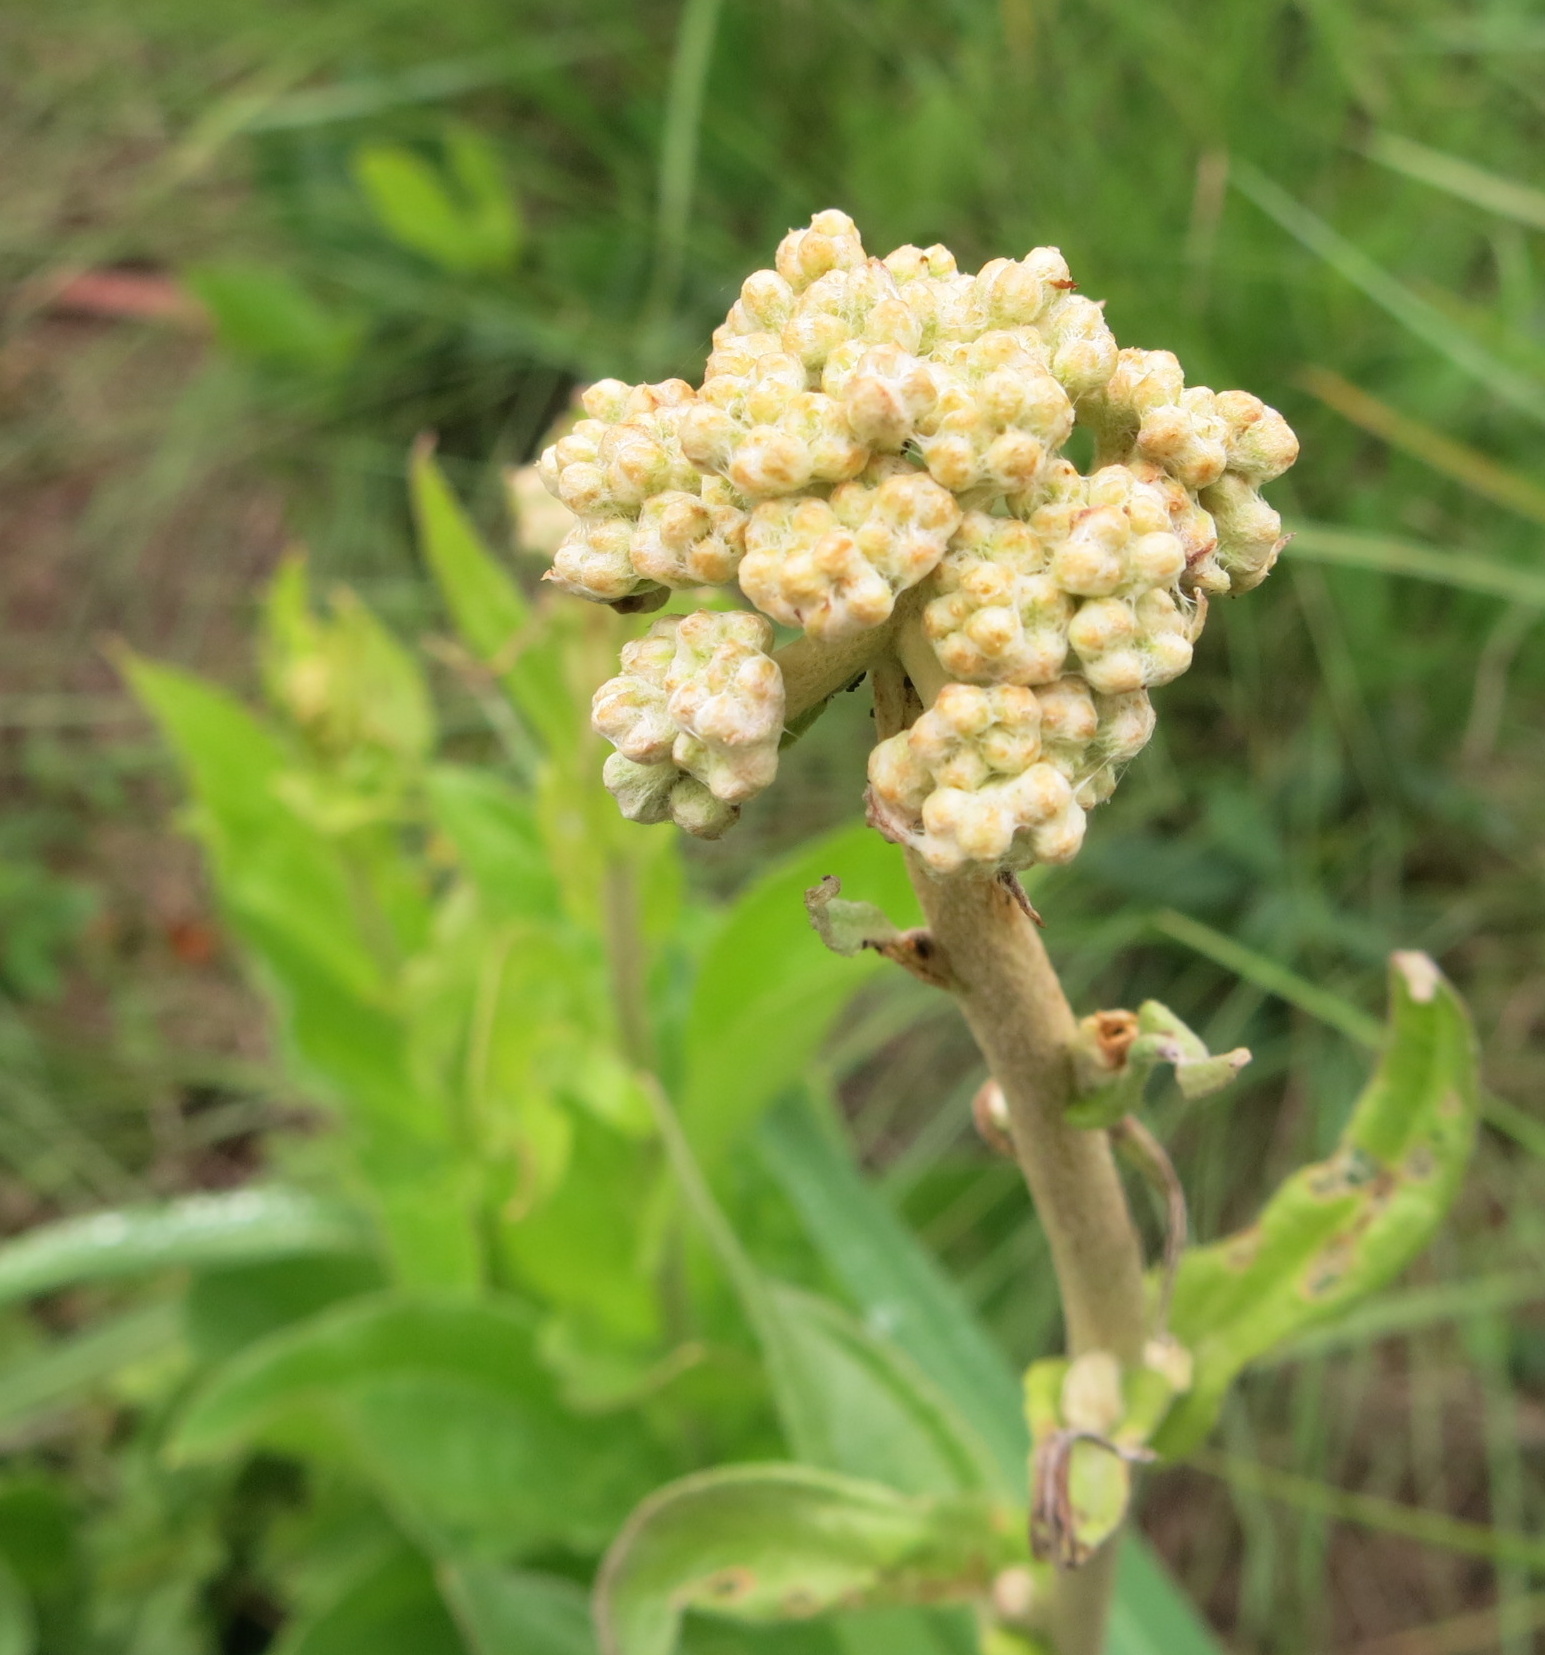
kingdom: Plantae
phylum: Tracheophyta
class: Magnoliopsida
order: Asterales
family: Asteraceae
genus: Helichrysum
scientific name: Helichrysum nudifolium
